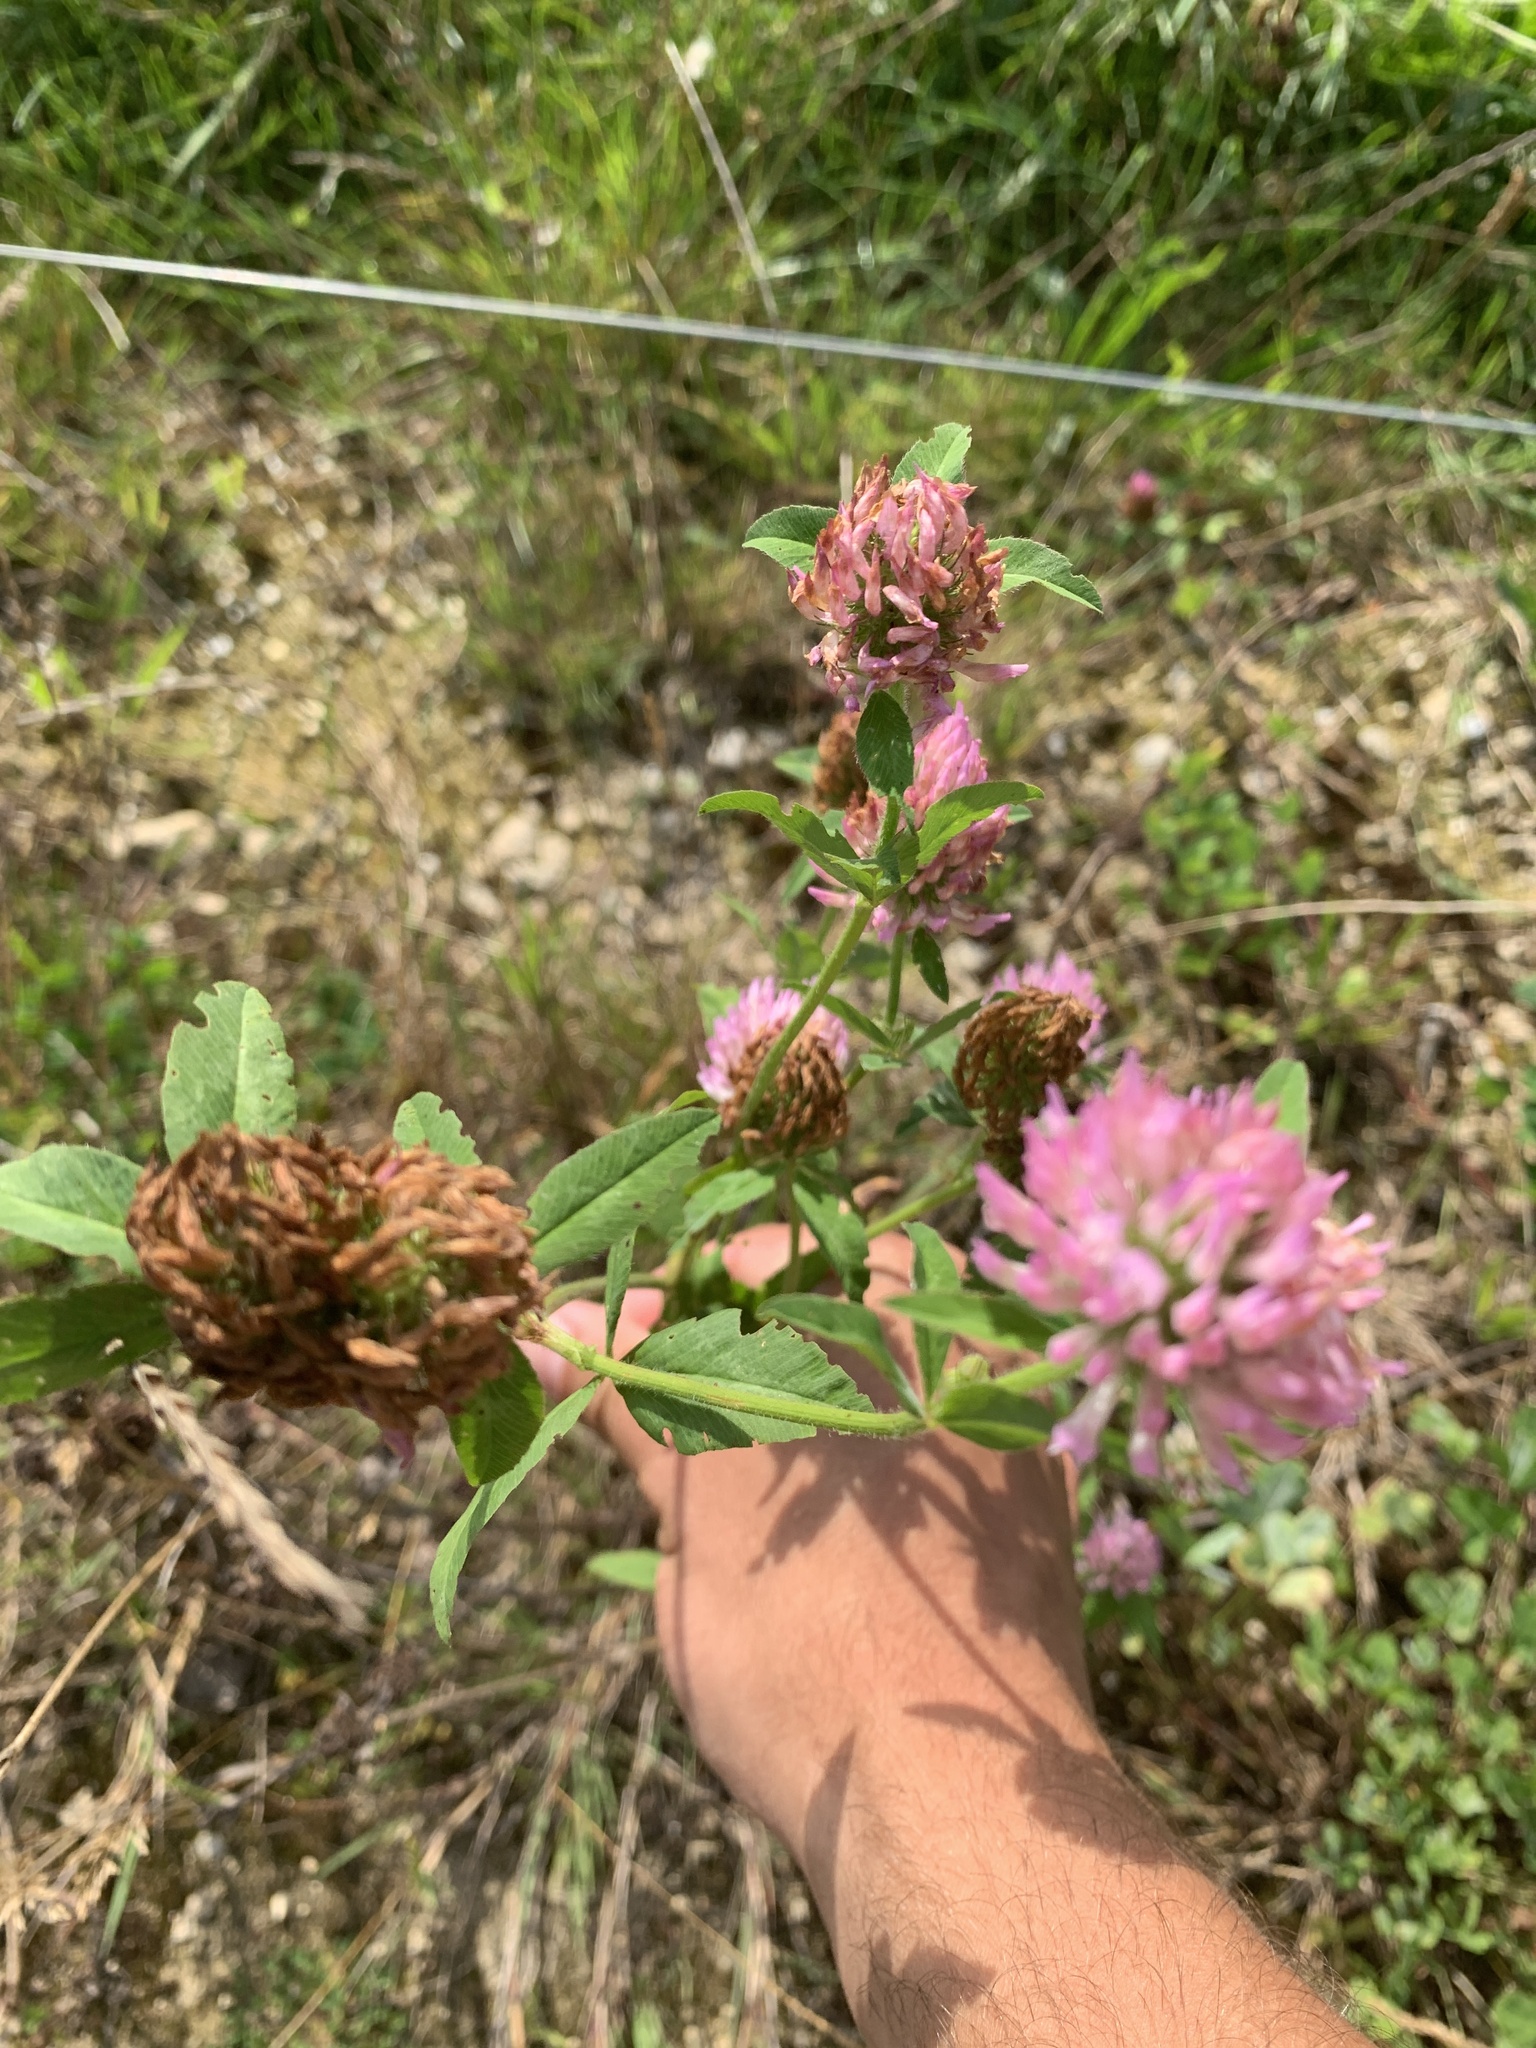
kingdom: Plantae
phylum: Tracheophyta
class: Magnoliopsida
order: Fabales
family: Fabaceae
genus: Trifolium
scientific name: Trifolium pratense
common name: Red clover
